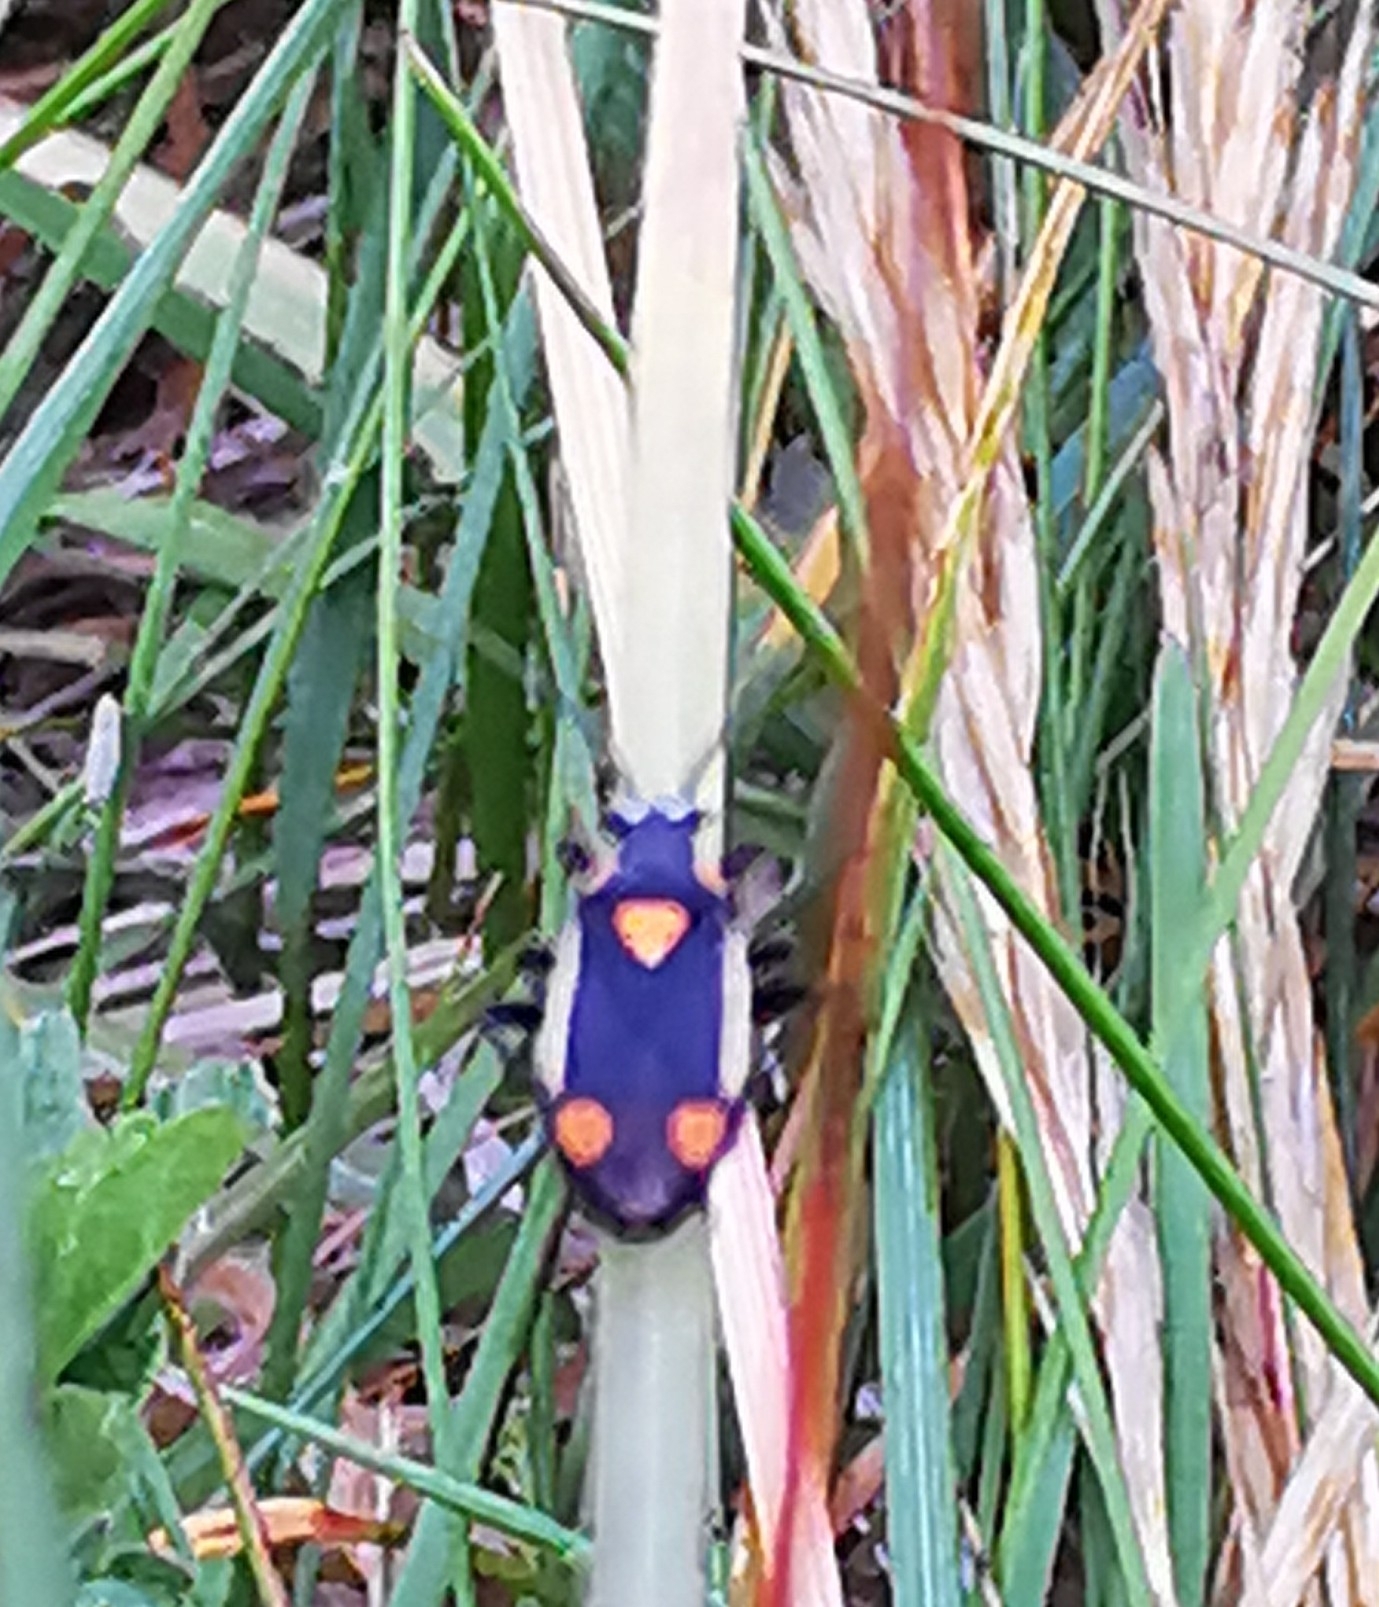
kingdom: Animalia
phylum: Arthropoda
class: Insecta
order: Hemiptera
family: Miridae
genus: Capsodes
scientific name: Capsodes gothicus
